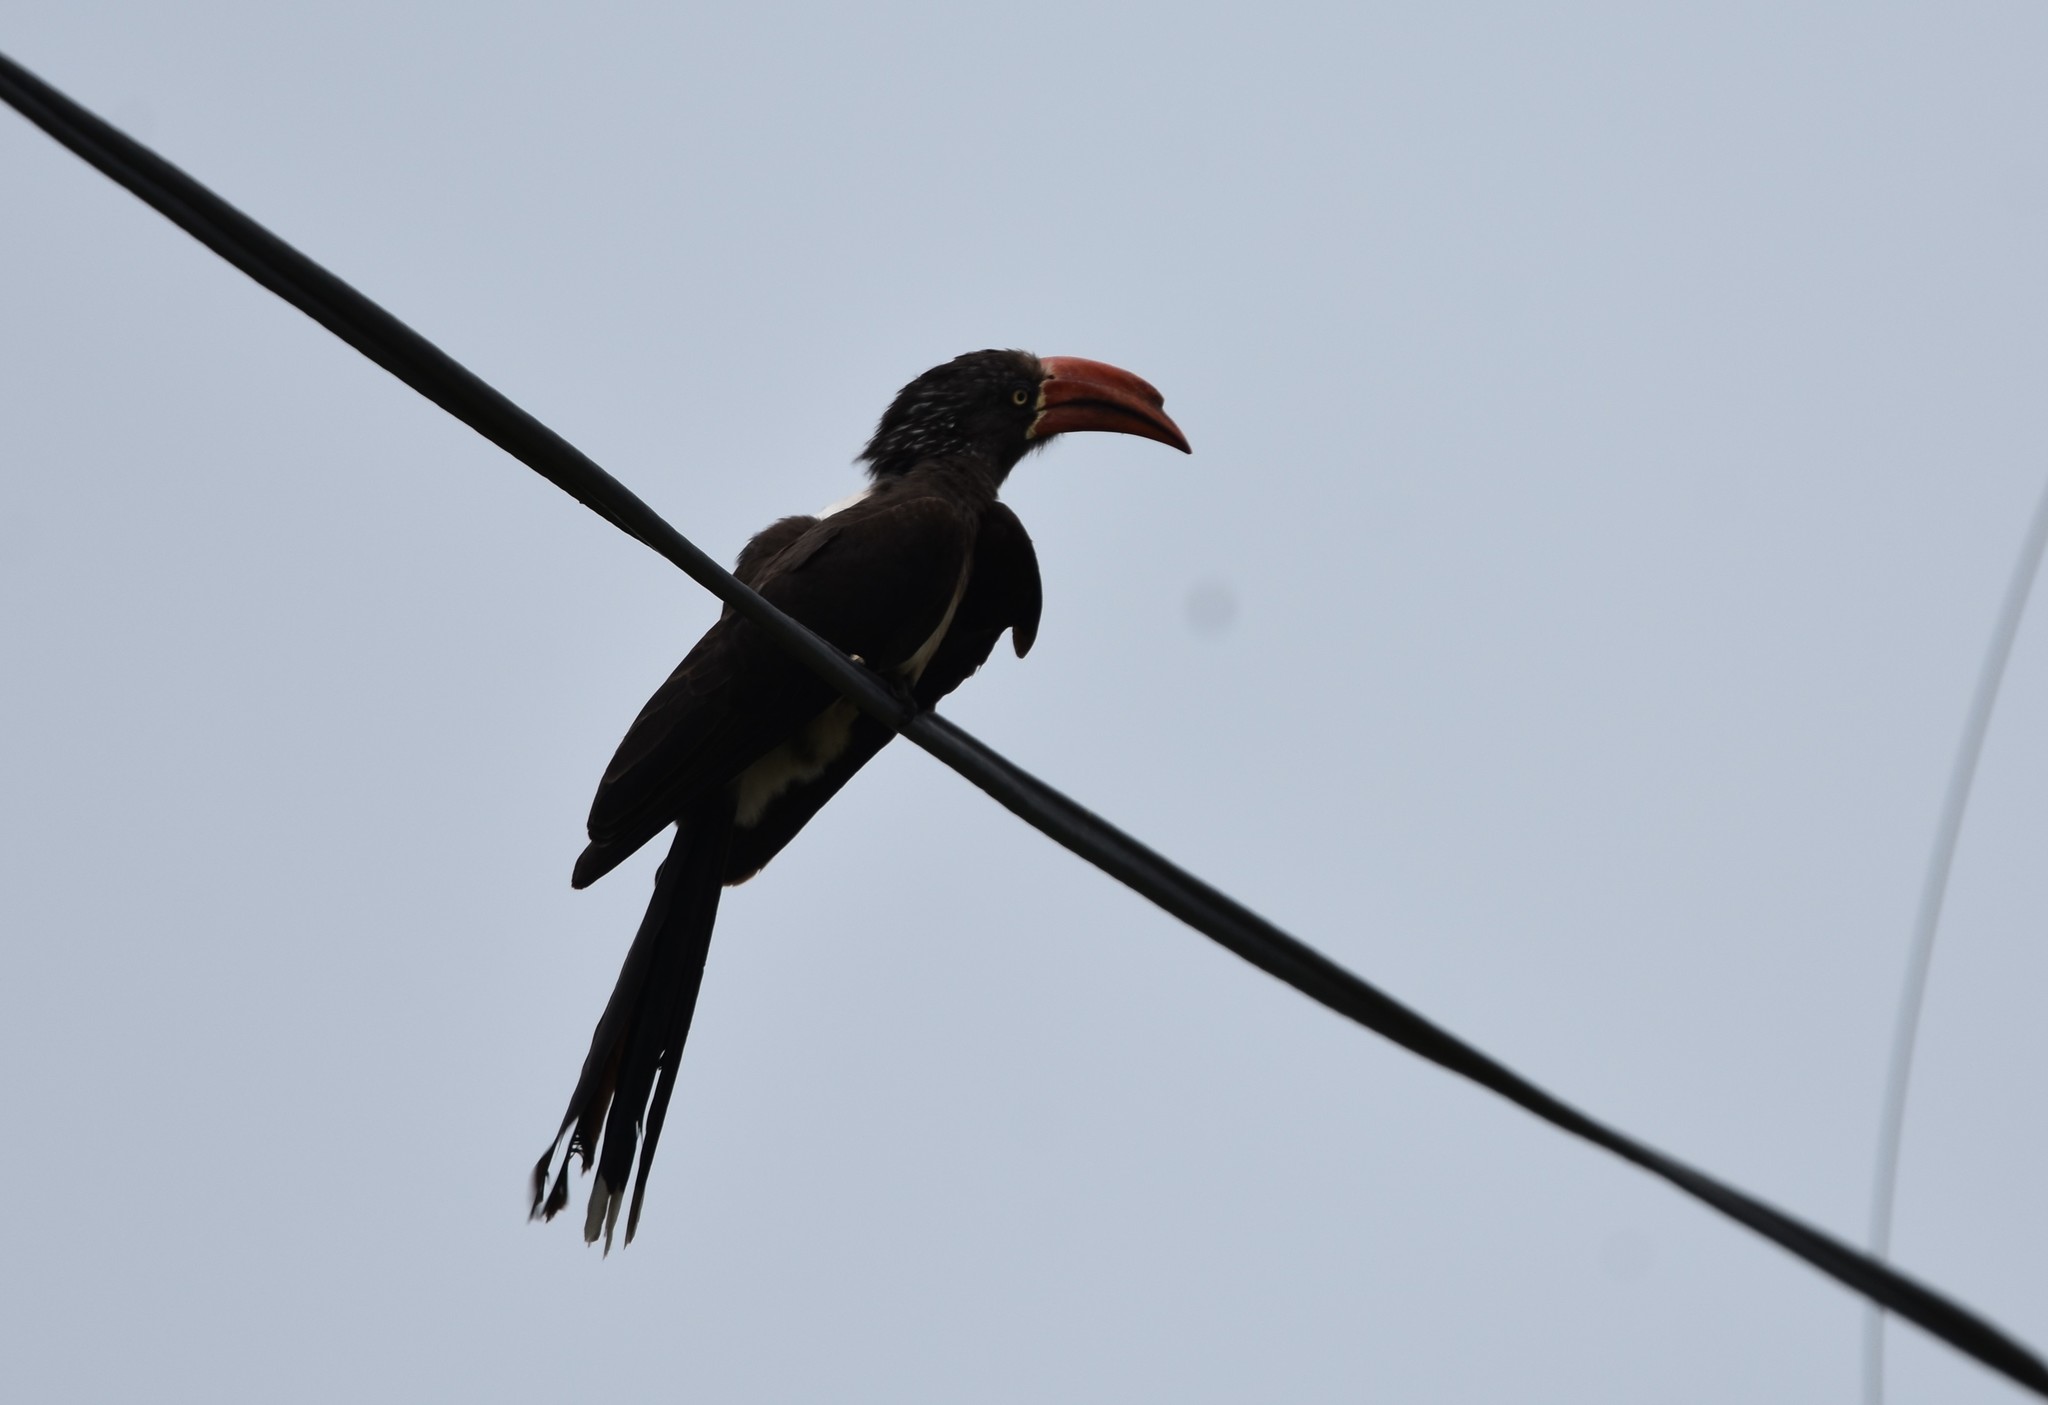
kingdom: Animalia
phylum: Chordata
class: Aves
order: Bucerotiformes
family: Bucerotidae
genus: Lophoceros
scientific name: Lophoceros alboterminatus
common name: Crowned hornbill
